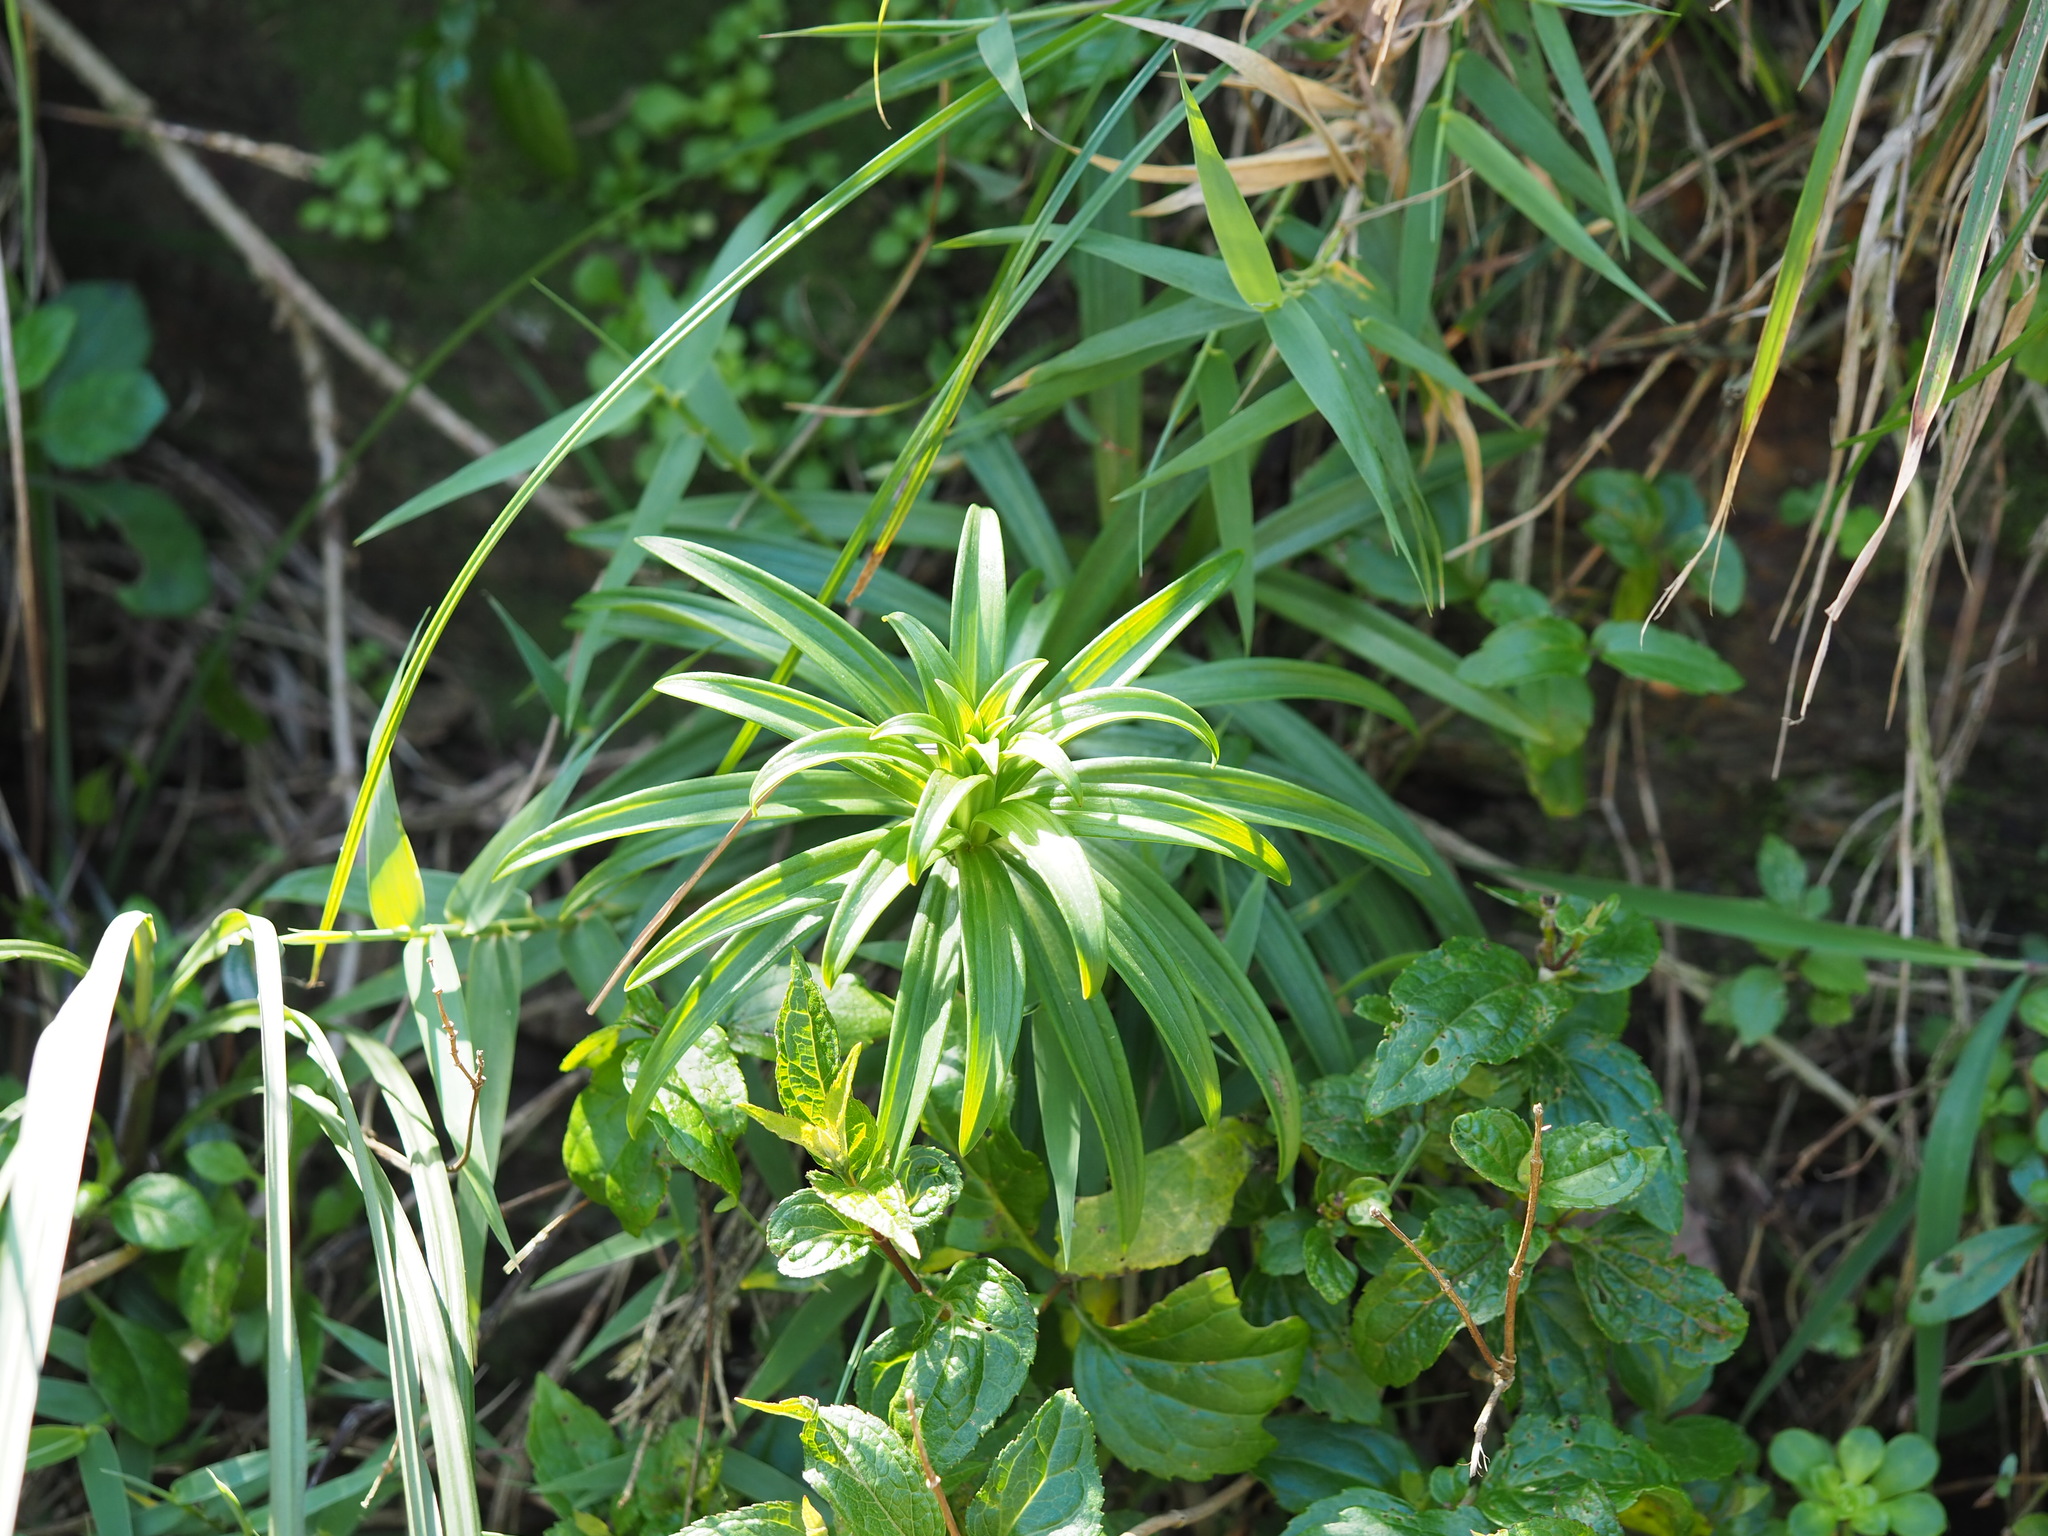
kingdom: Plantae
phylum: Tracheophyta
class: Liliopsida
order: Liliales
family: Liliaceae
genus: Lilium
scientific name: Lilium longiflorum
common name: Easter lily
